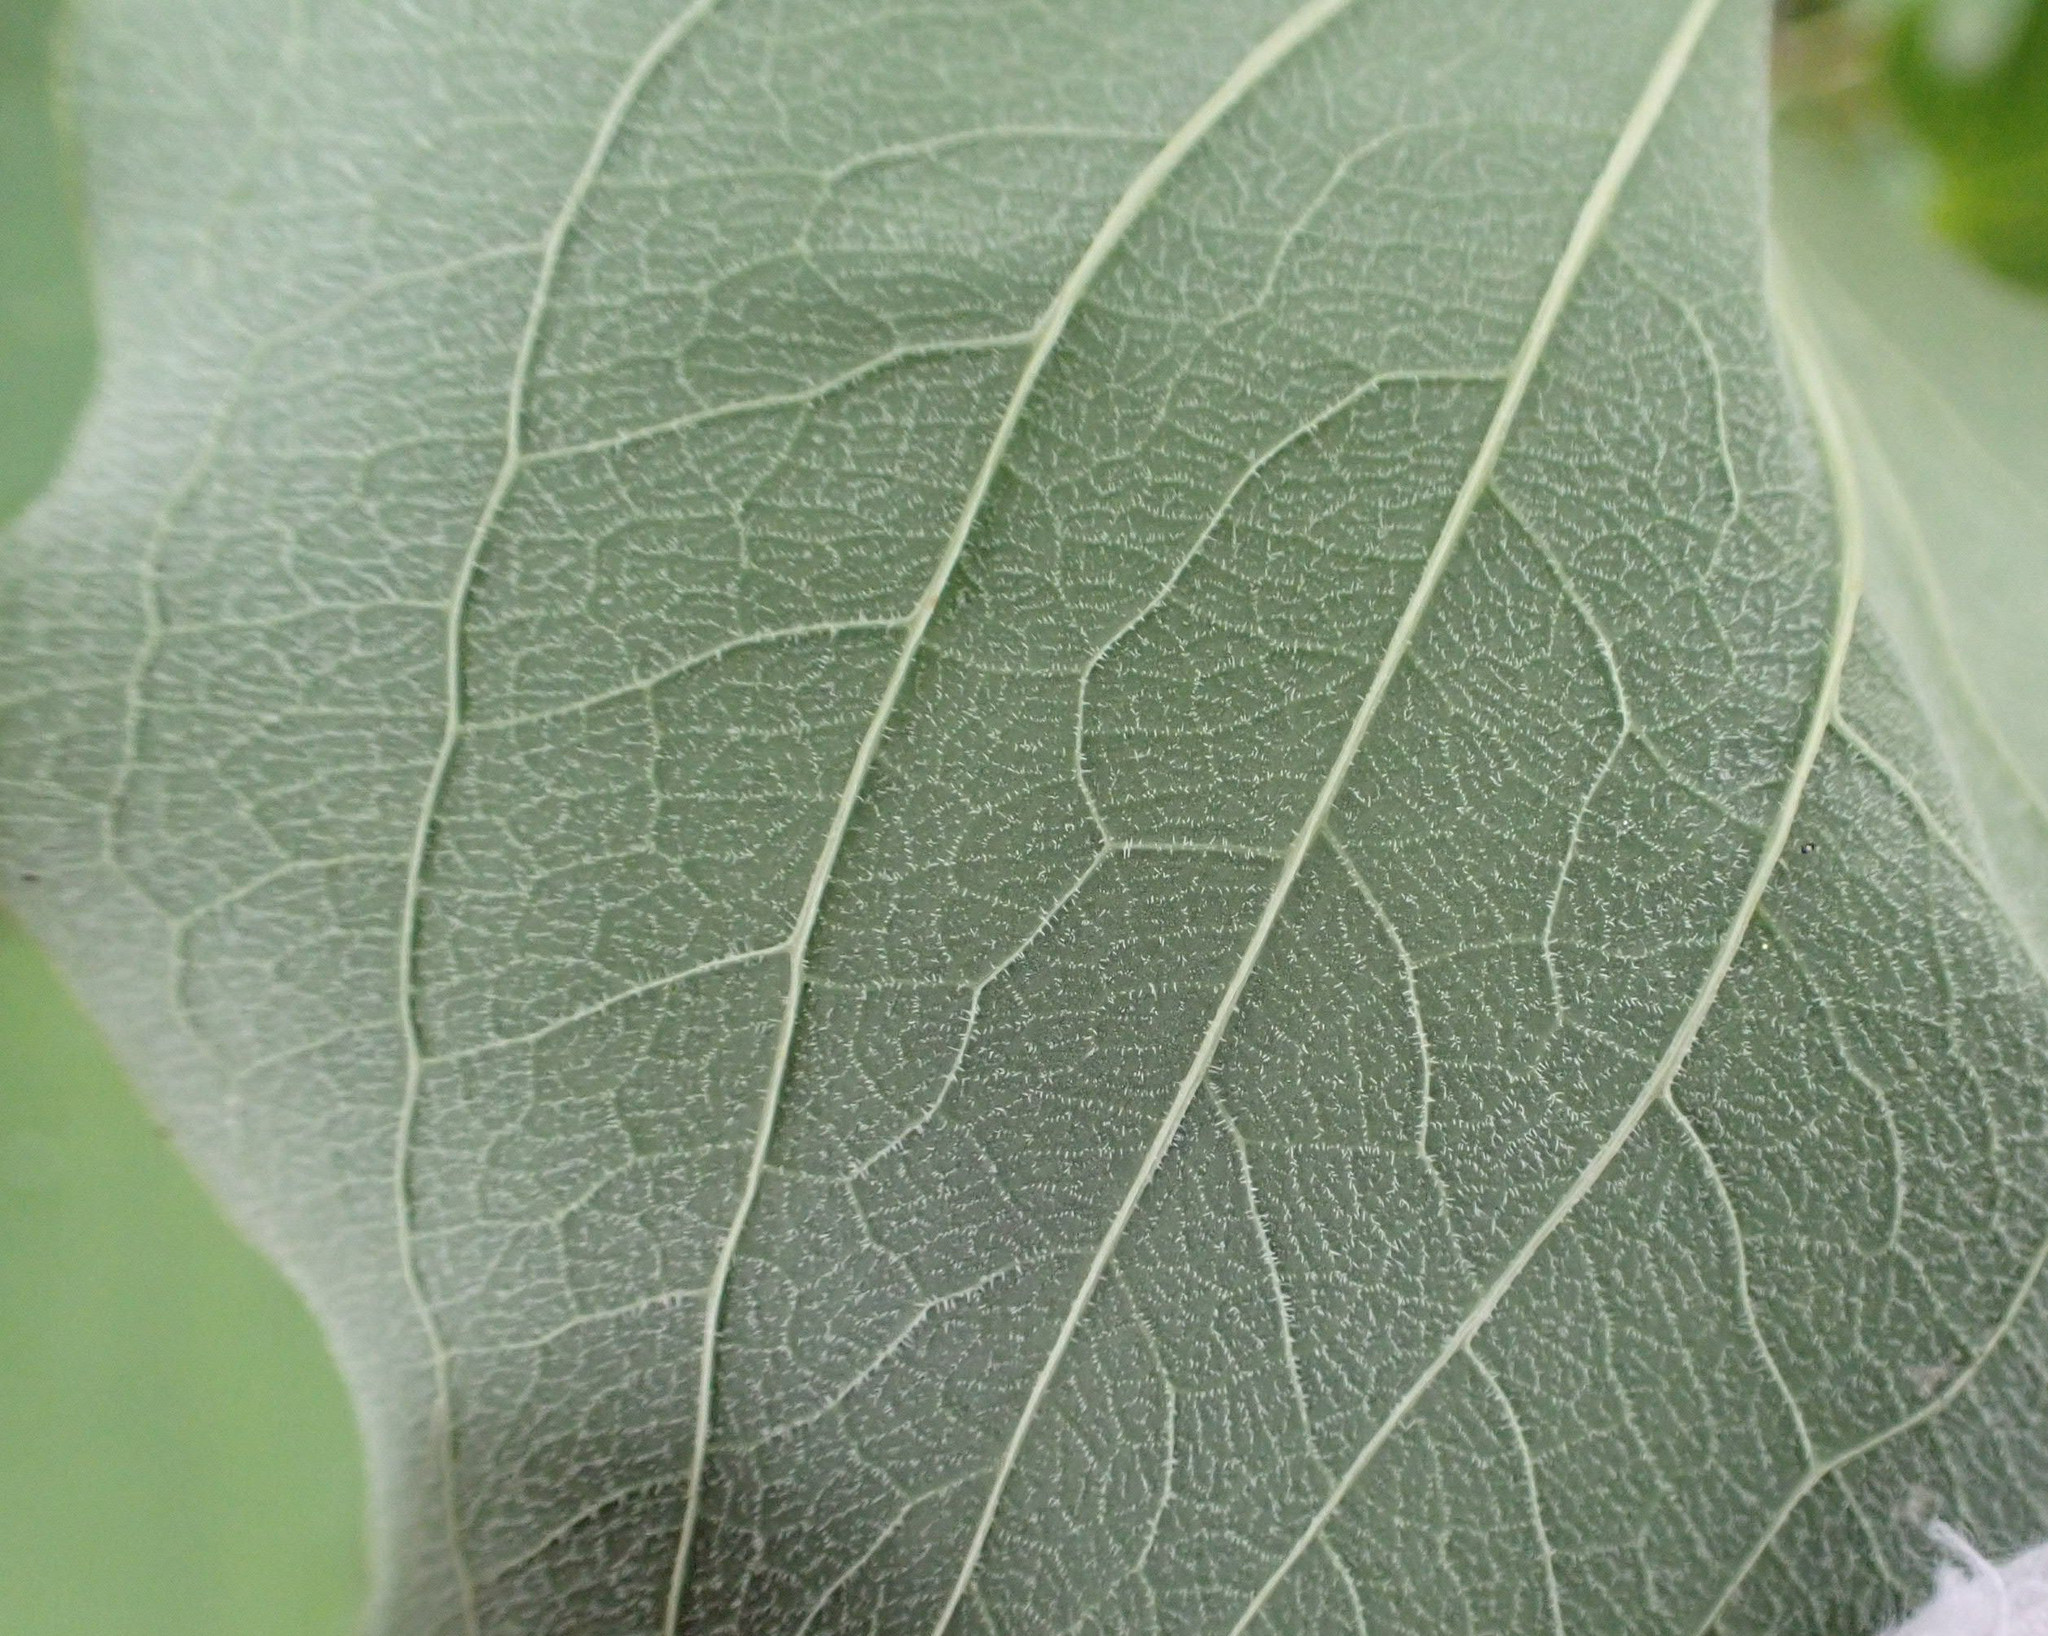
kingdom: Plantae
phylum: Tracheophyta
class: Liliopsida
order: Liliales
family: Smilacaceae
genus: Smilax
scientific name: Smilax lasioneura
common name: Blue ridge carrionflower
